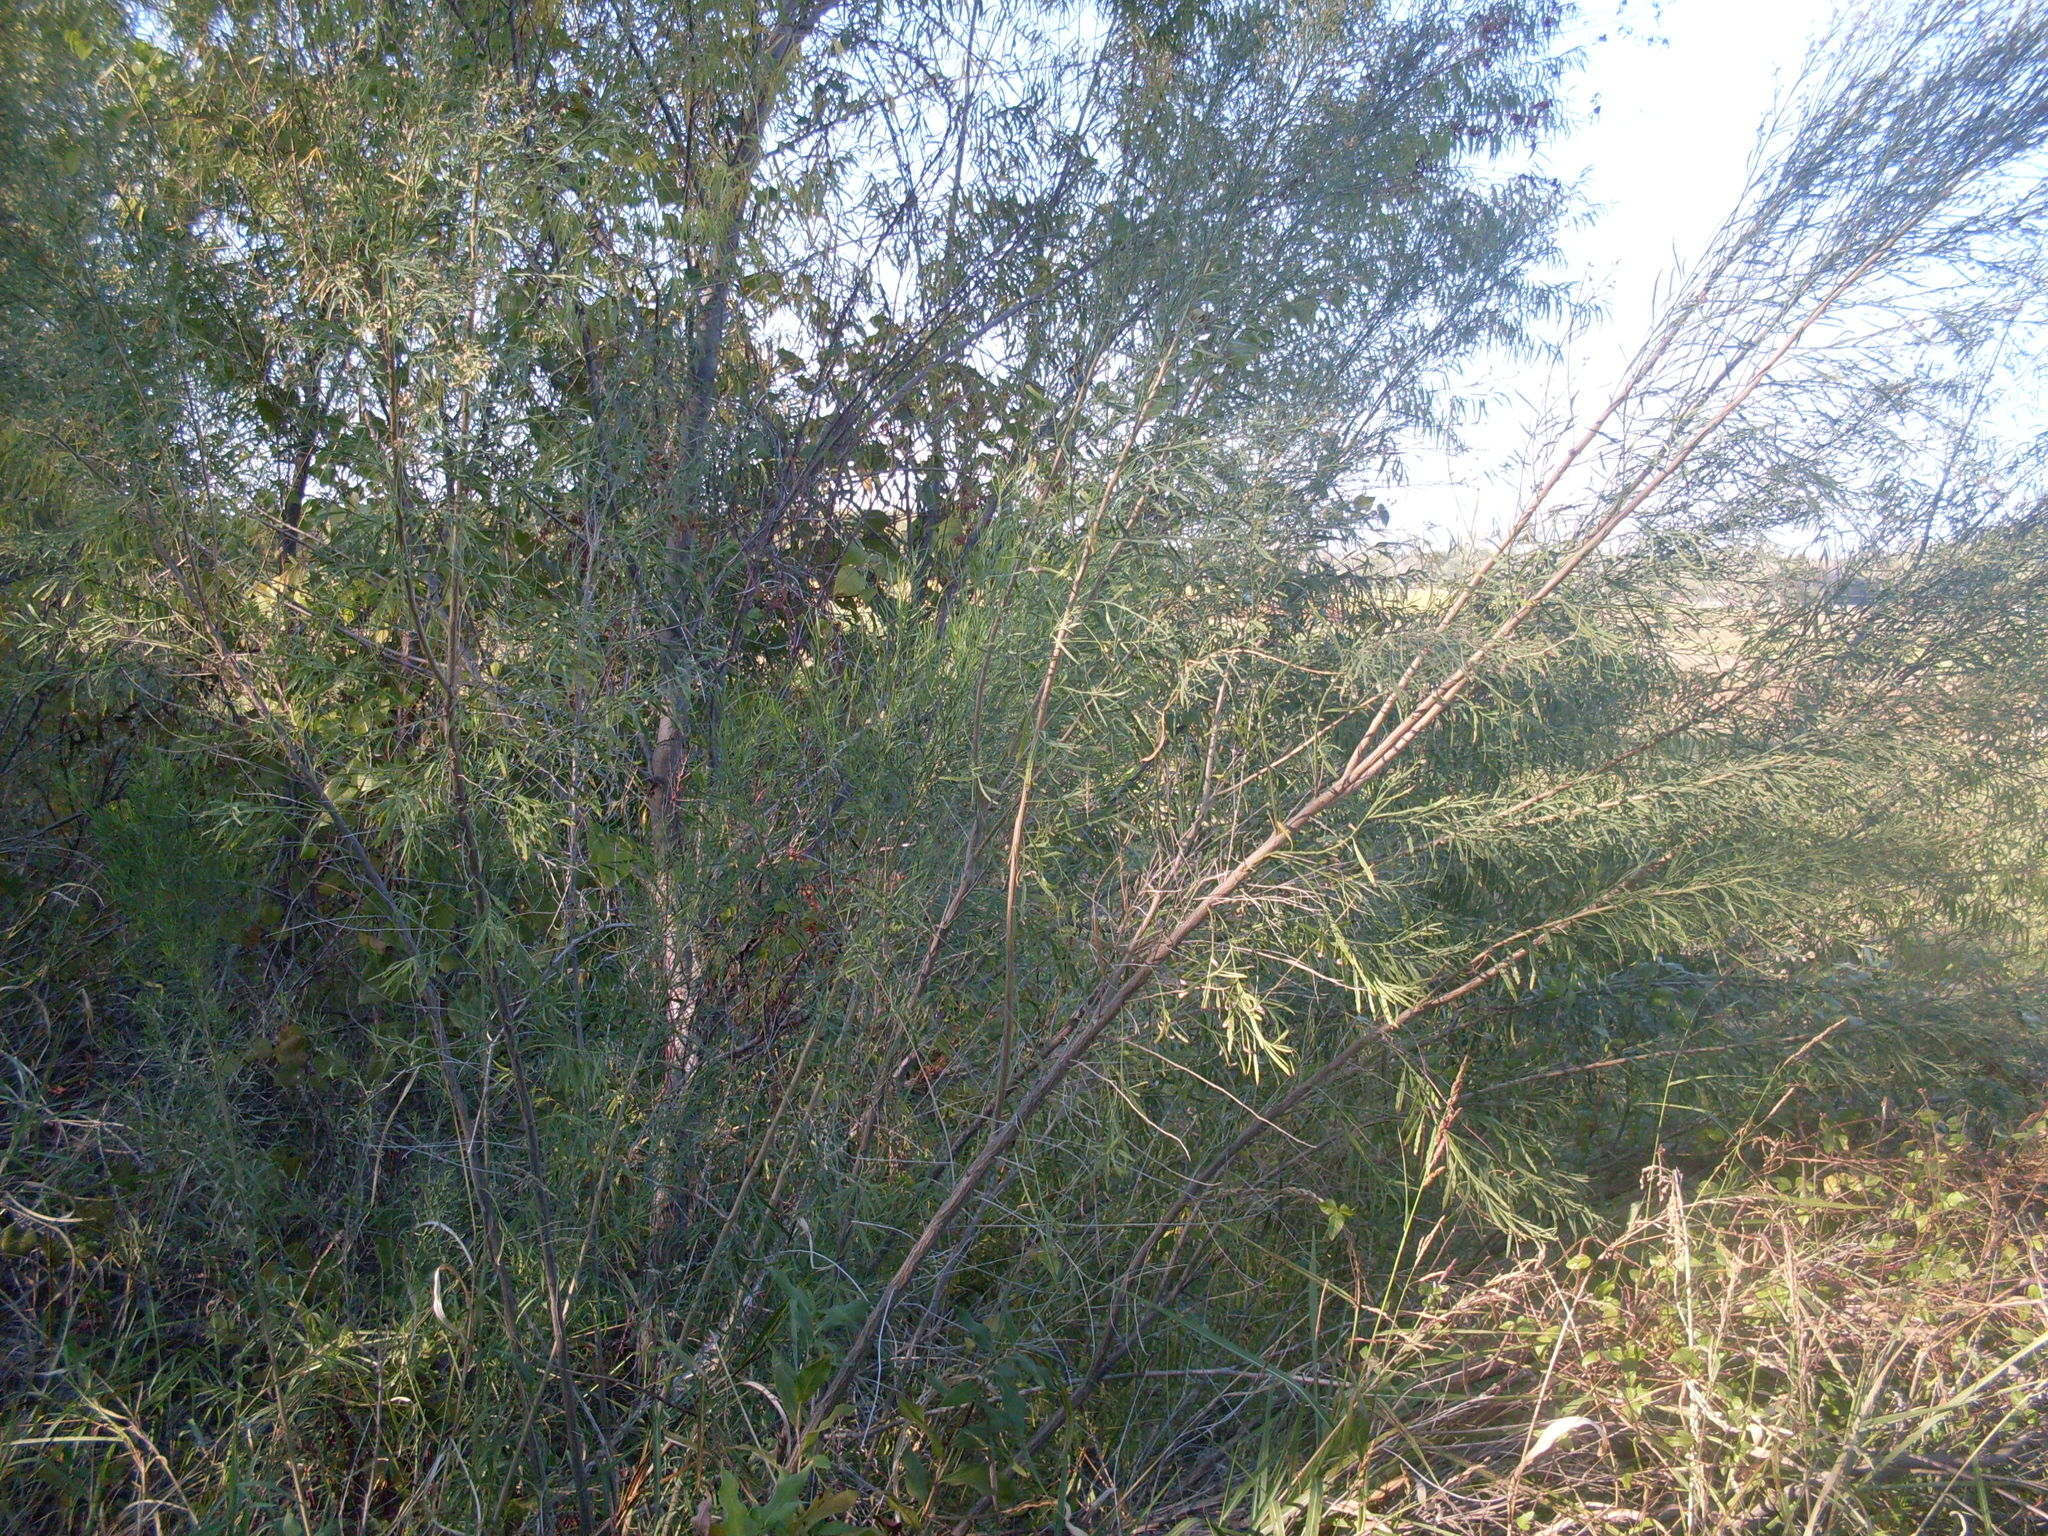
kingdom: Plantae
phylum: Tracheophyta
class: Magnoliopsida
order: Asterales
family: Asteraceae
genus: Baccharis
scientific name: Baccharis neglecta
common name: Roosevelt-weed
